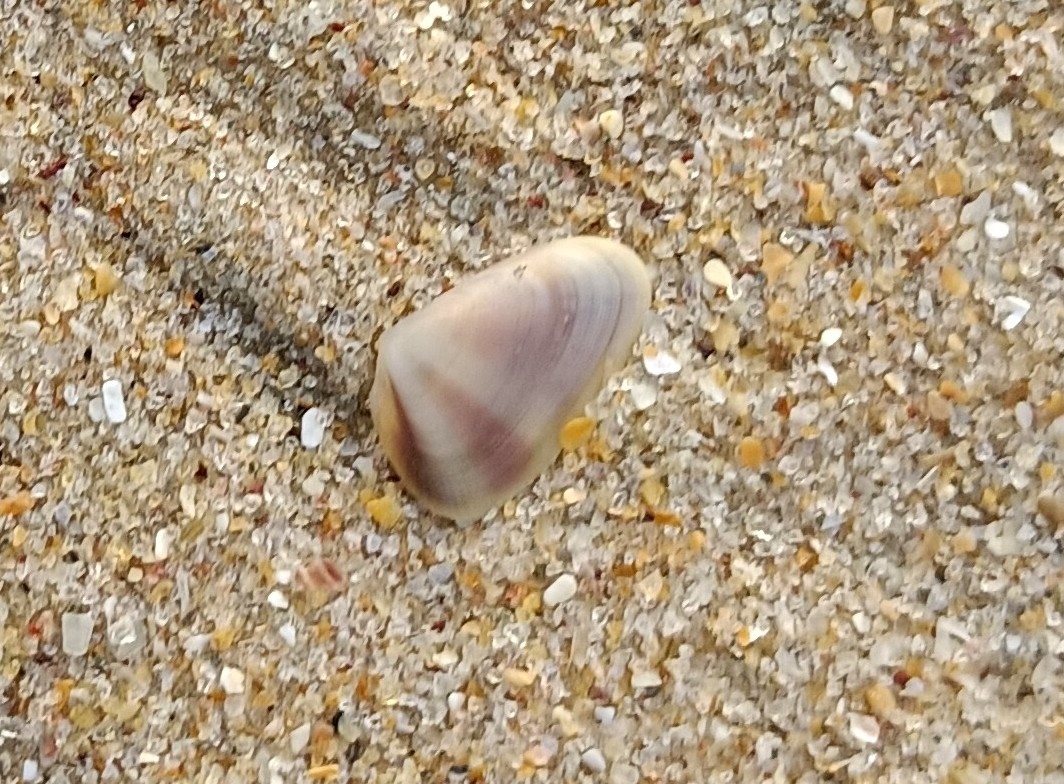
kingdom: Animalia
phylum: Mollusca
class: Bivalvia
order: Cardiida
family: Donacidae
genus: Latona
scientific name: Latona cuneata
